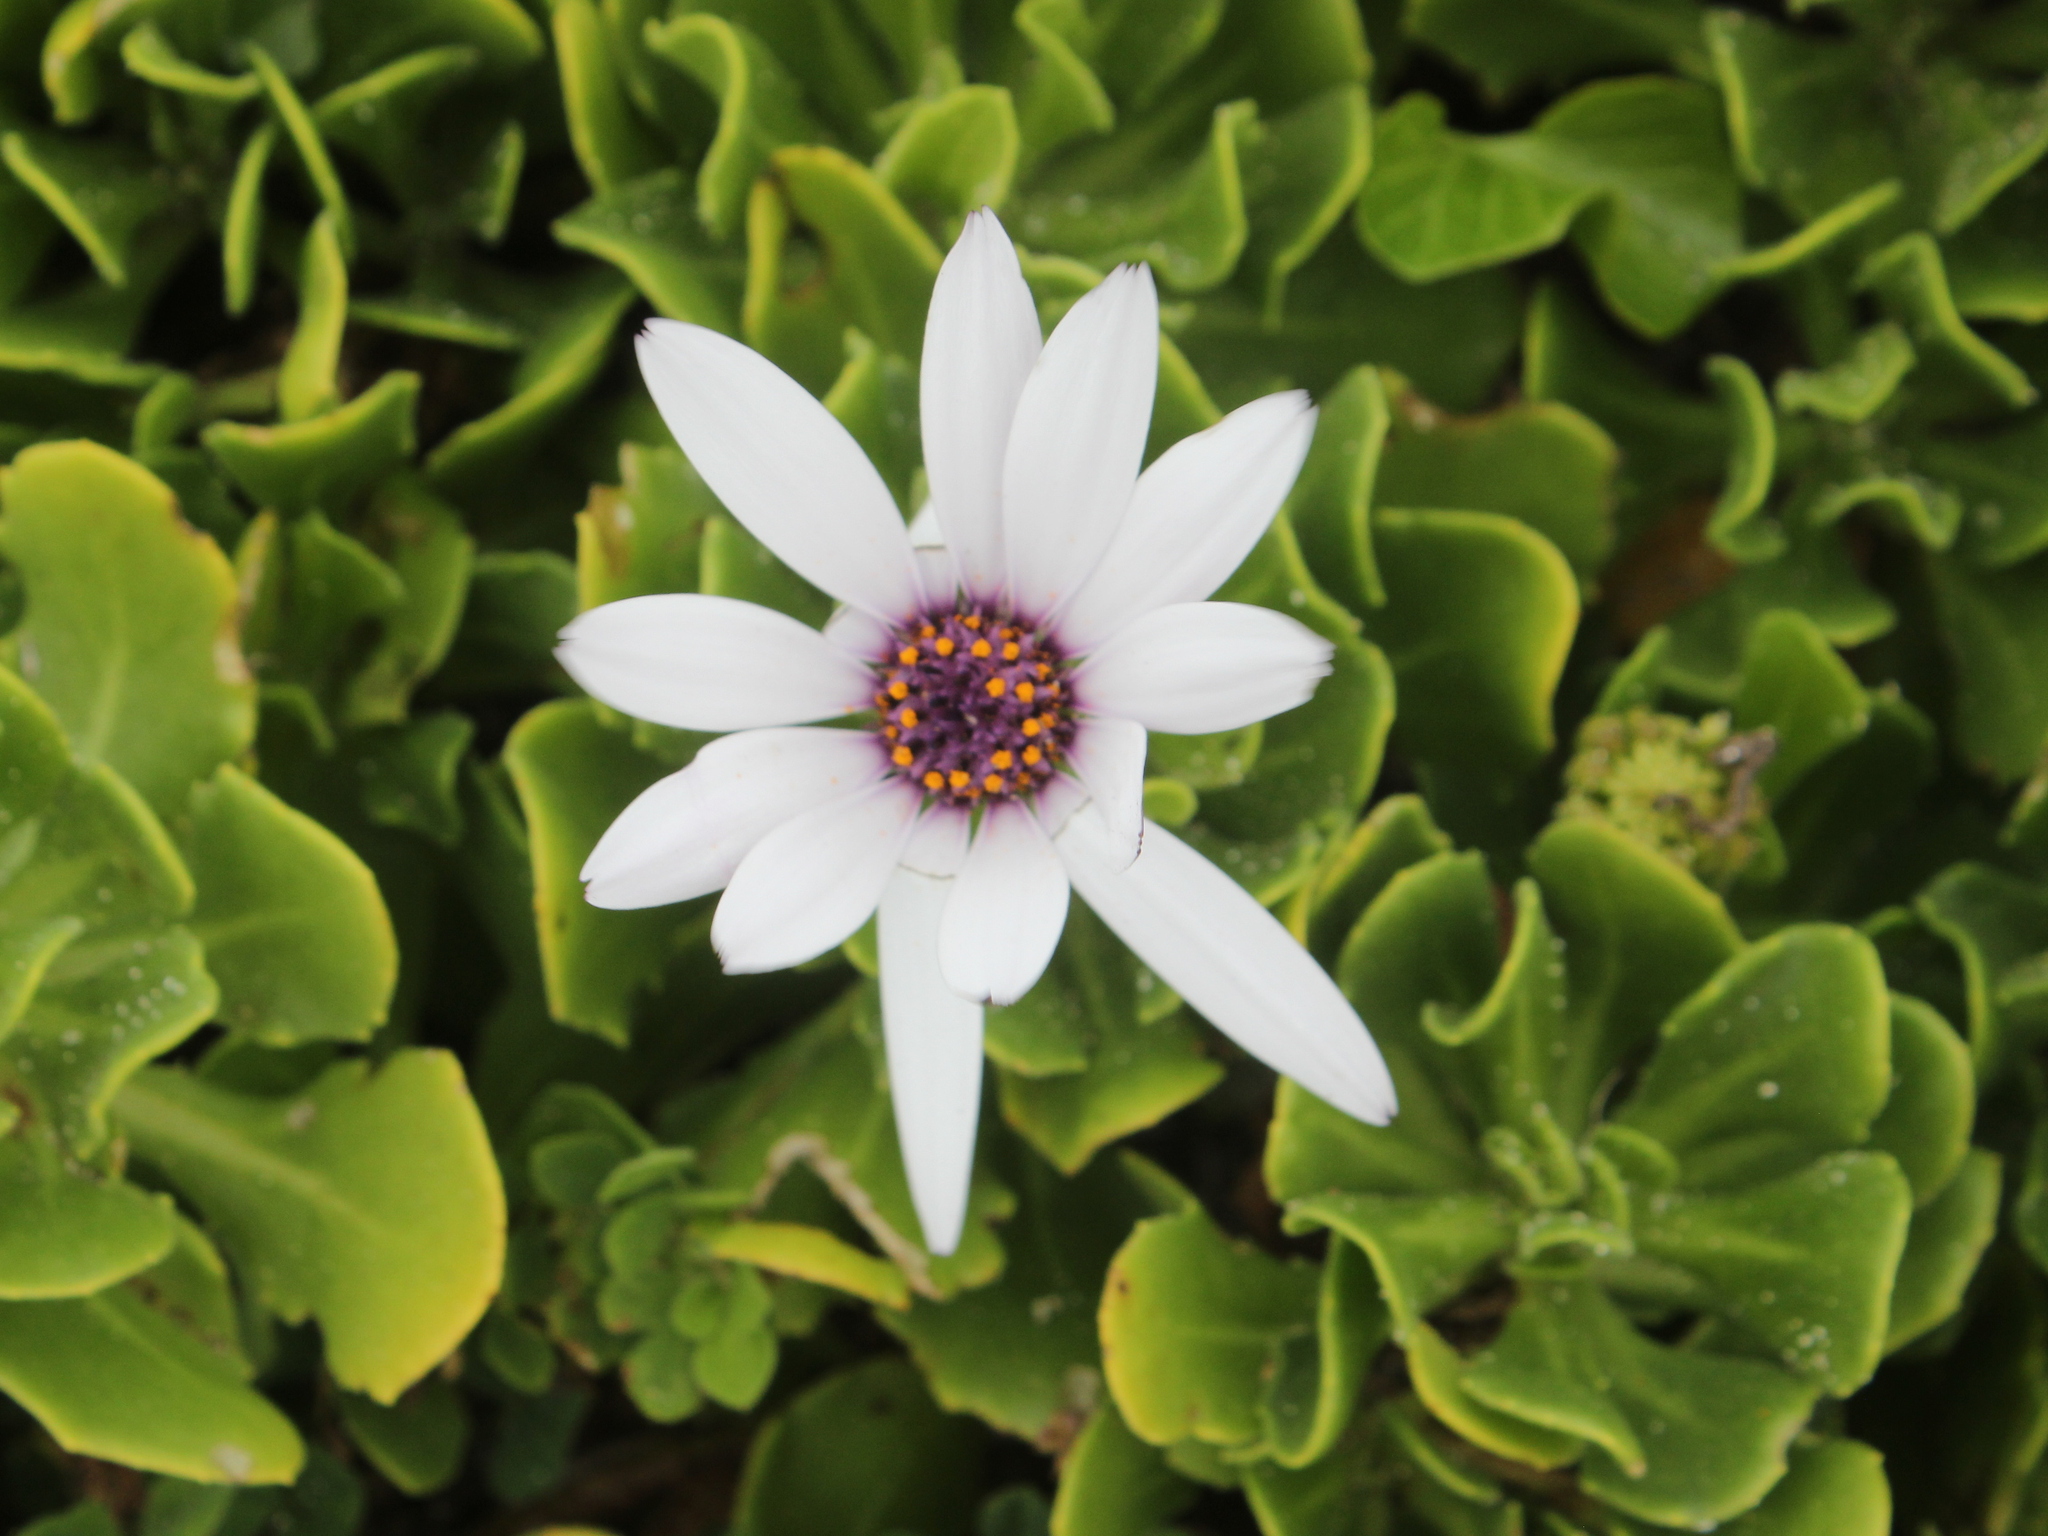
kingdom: Plantae
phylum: Tracheophyta
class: Magnoliopsida
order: Asterales
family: Asteraceae
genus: Dimorphotheca
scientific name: Dimorphotheca fruticosa
